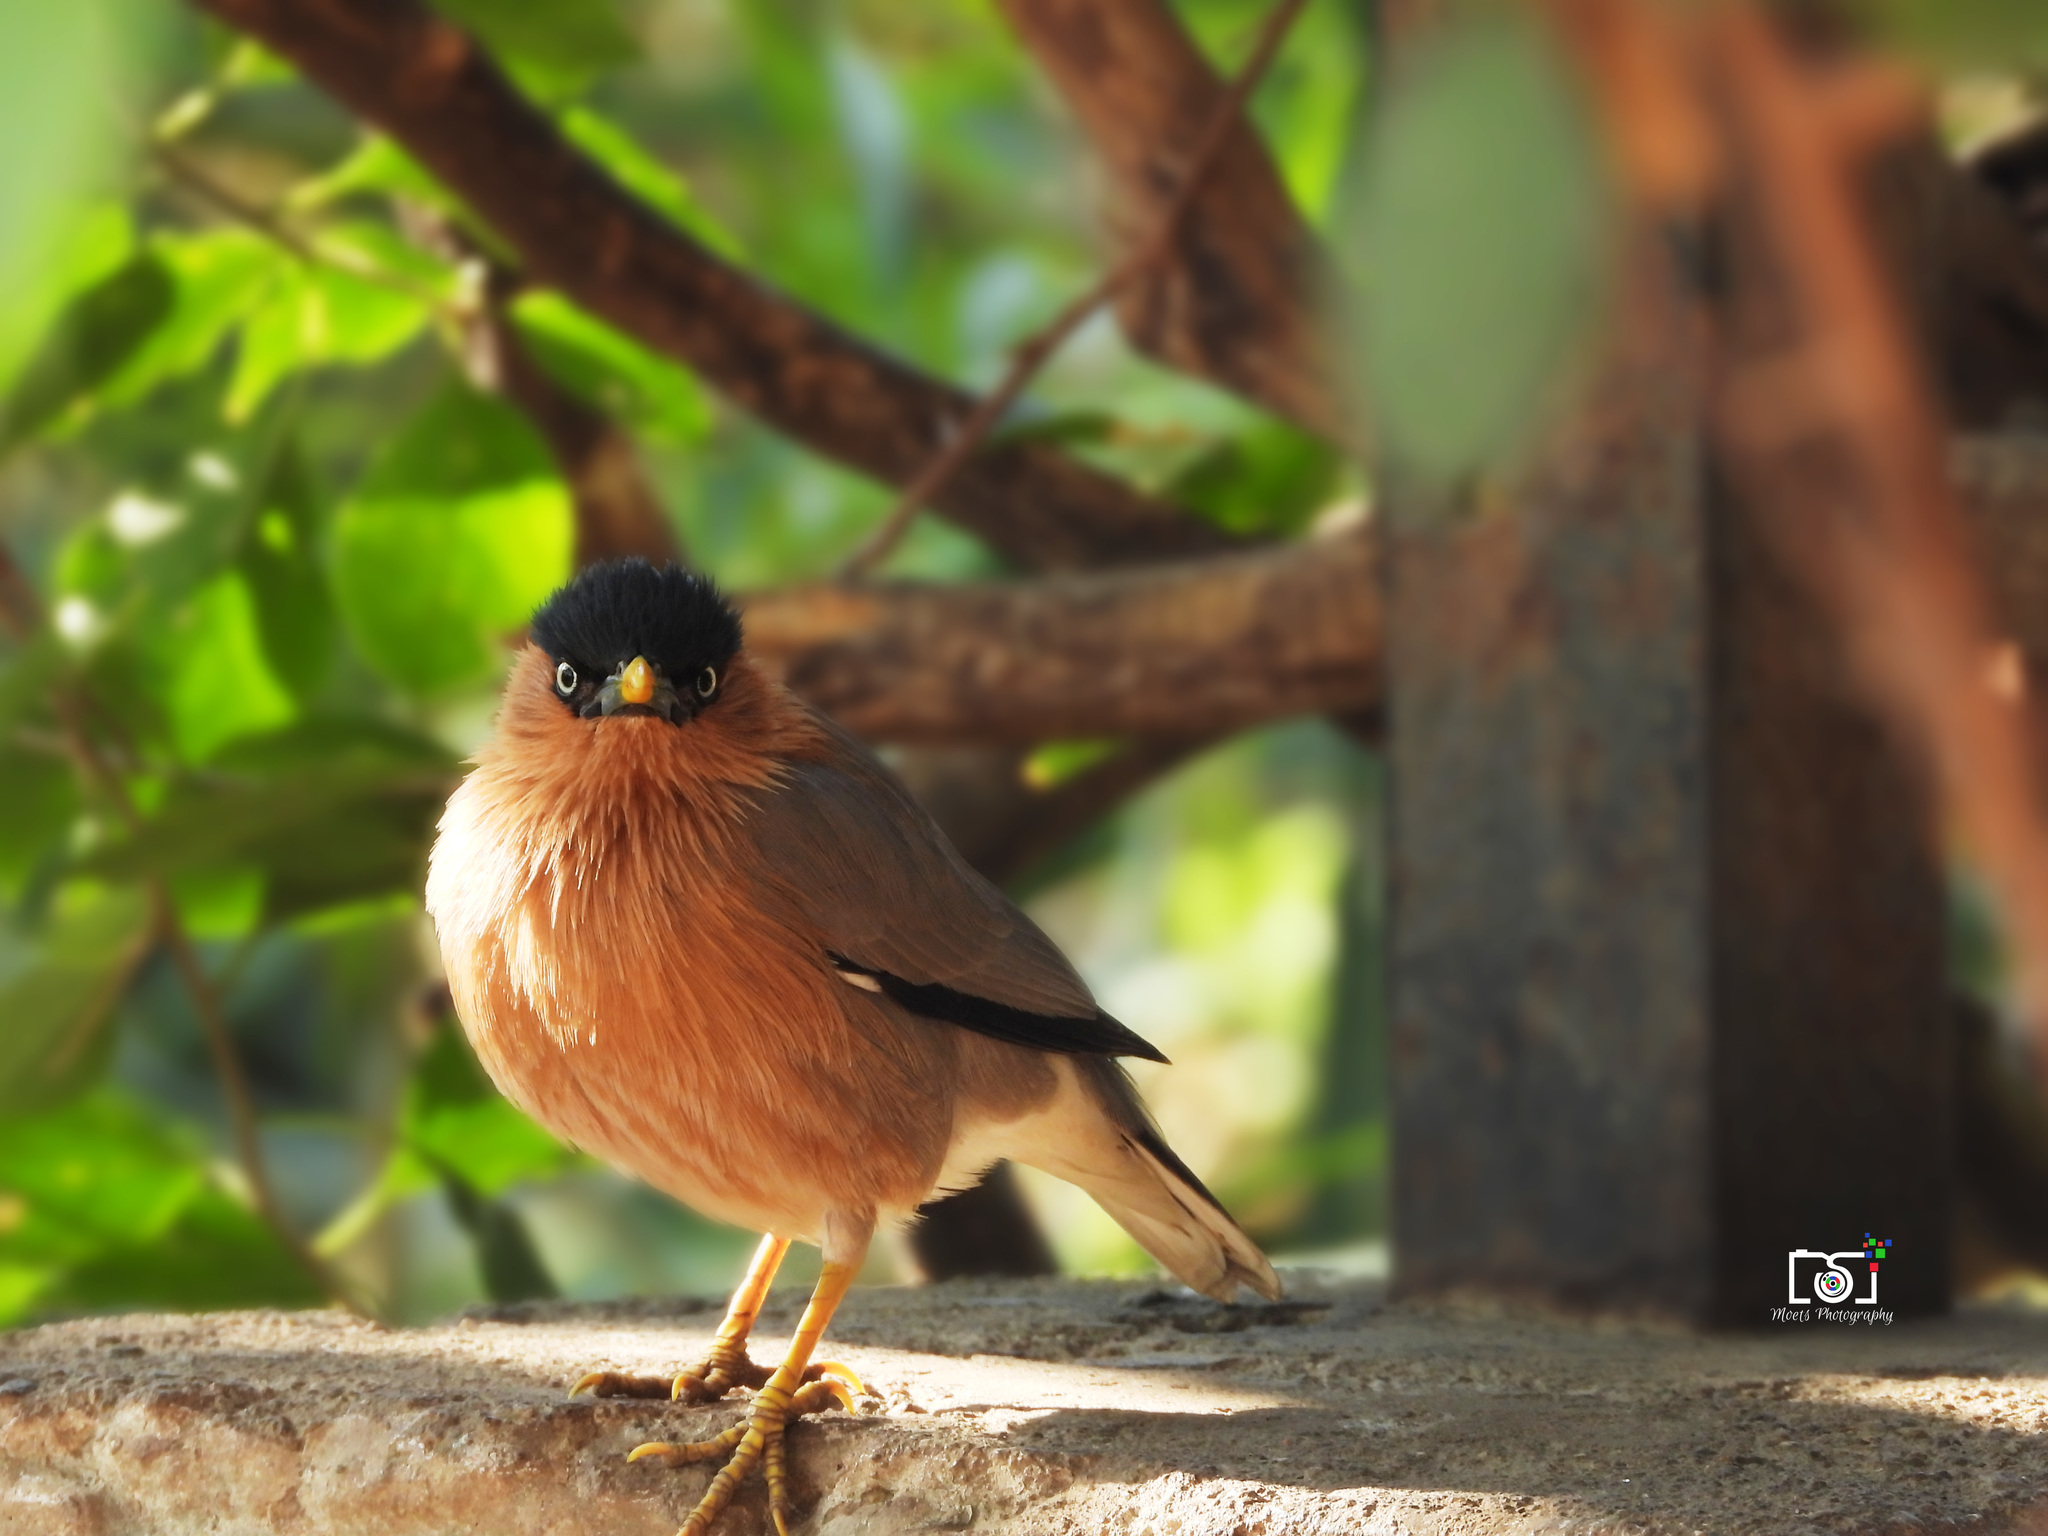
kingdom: Animalia
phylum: Chordata
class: Aves
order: Passeriformes
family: Sturnidae
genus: Sturnia
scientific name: Sturnia pagodarum
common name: Brahminy starling
